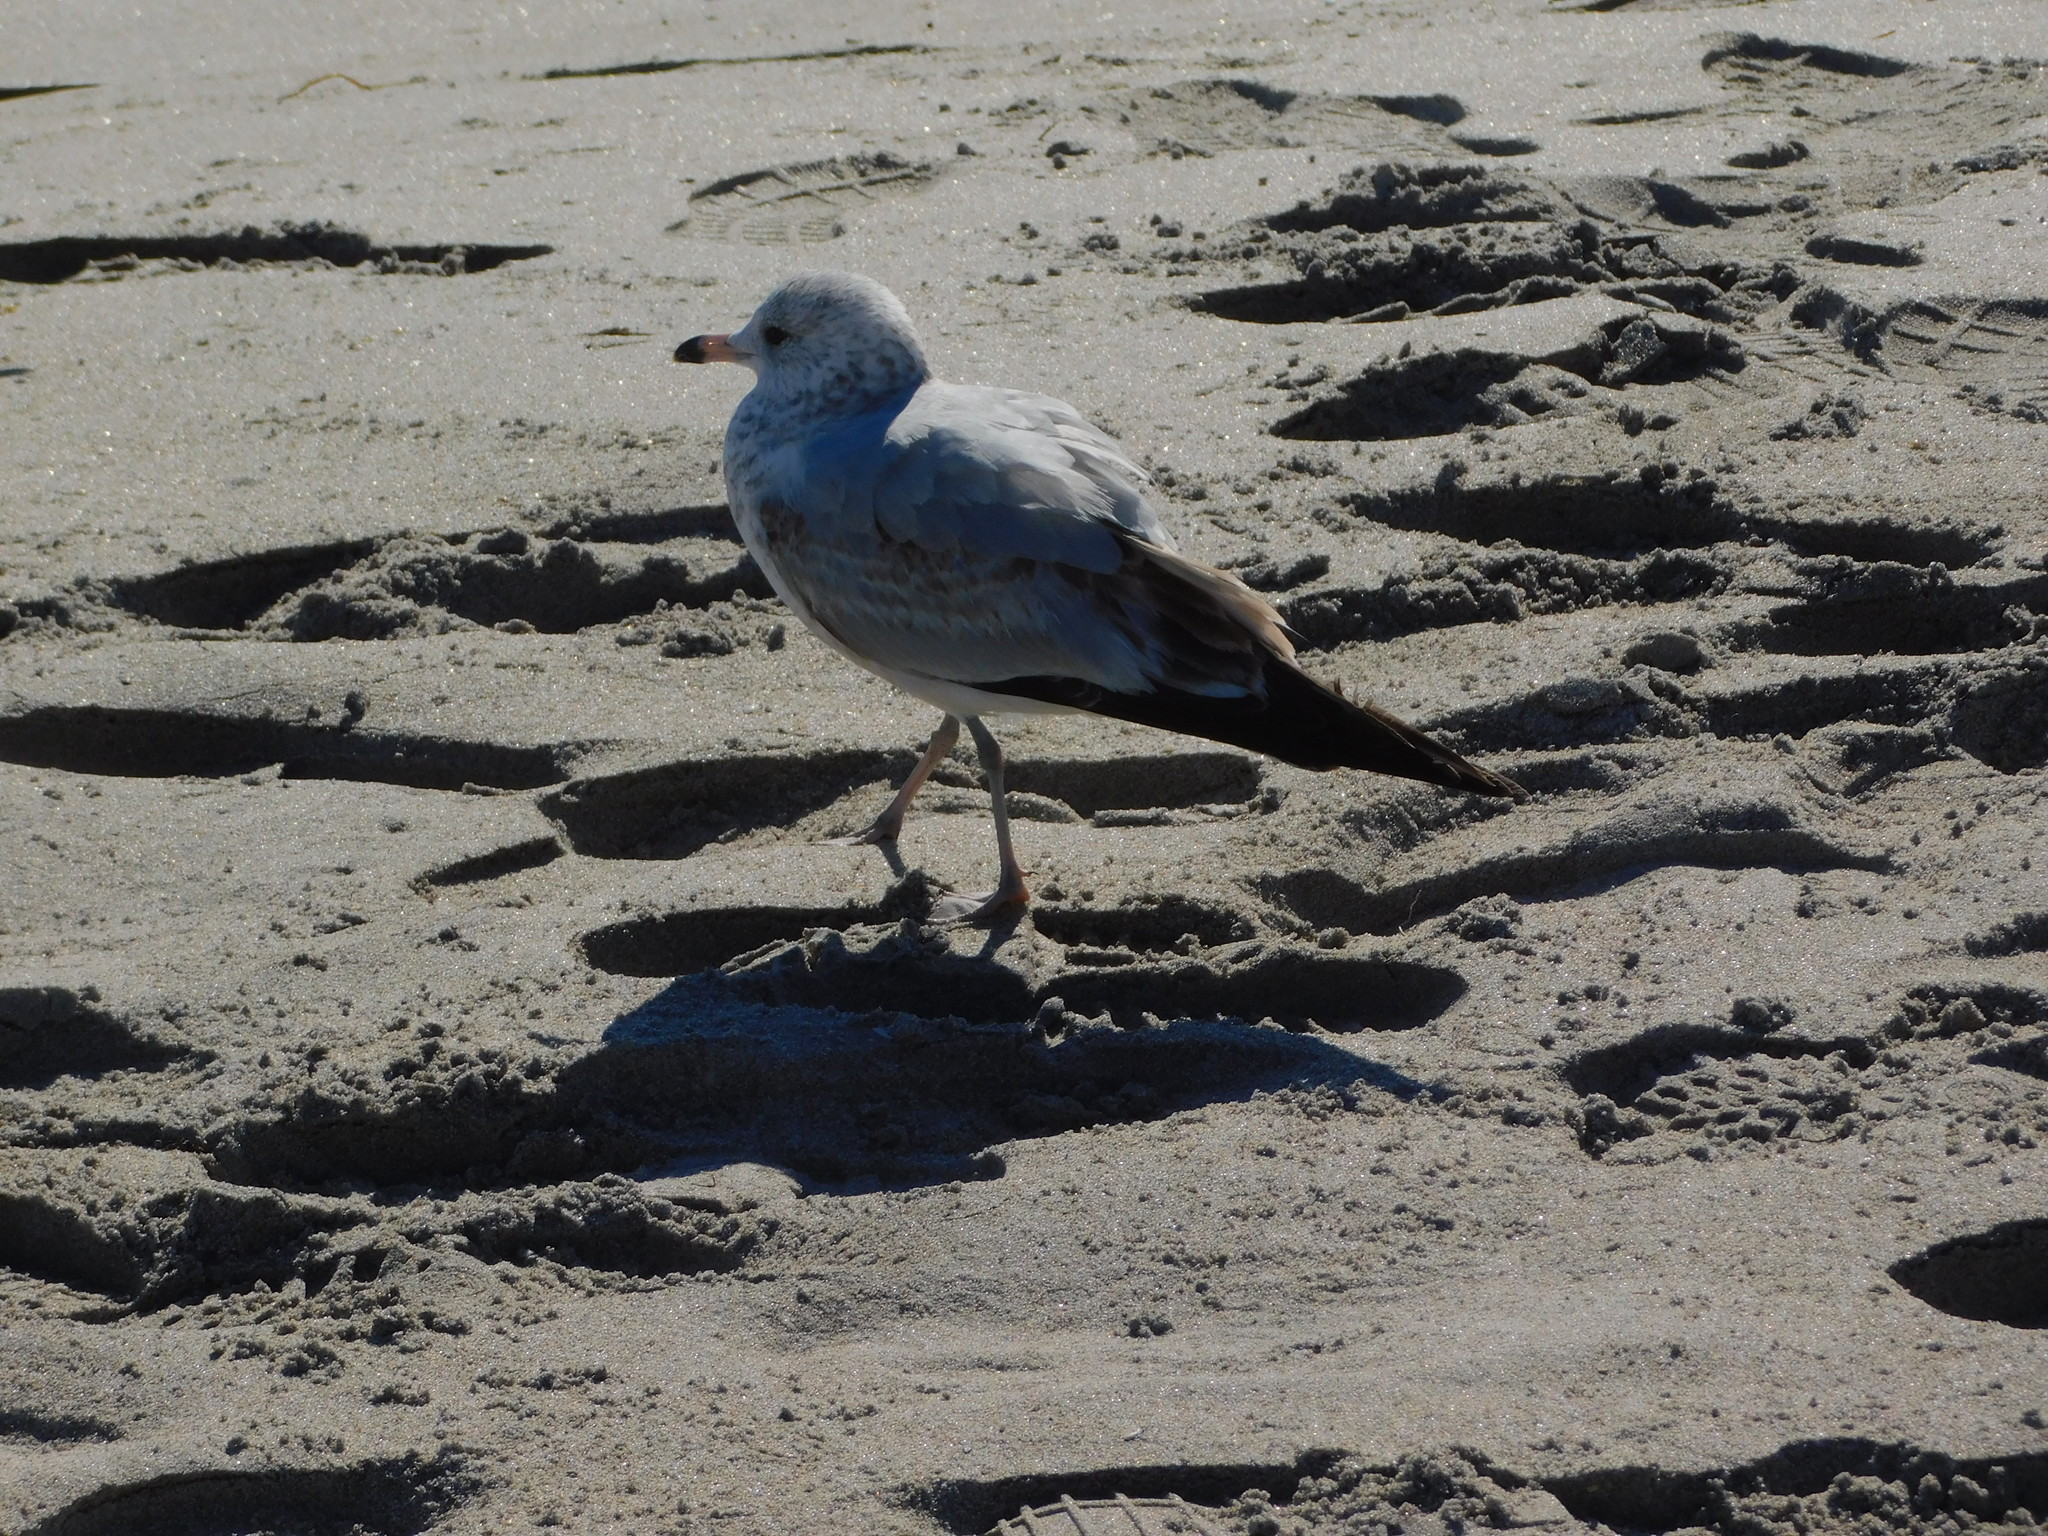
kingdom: Animalia
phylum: Chordata
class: Aves
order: Charadriiformes
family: Laridae
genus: Larus
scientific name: Larus delawarensis
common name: Ring-billed gull
